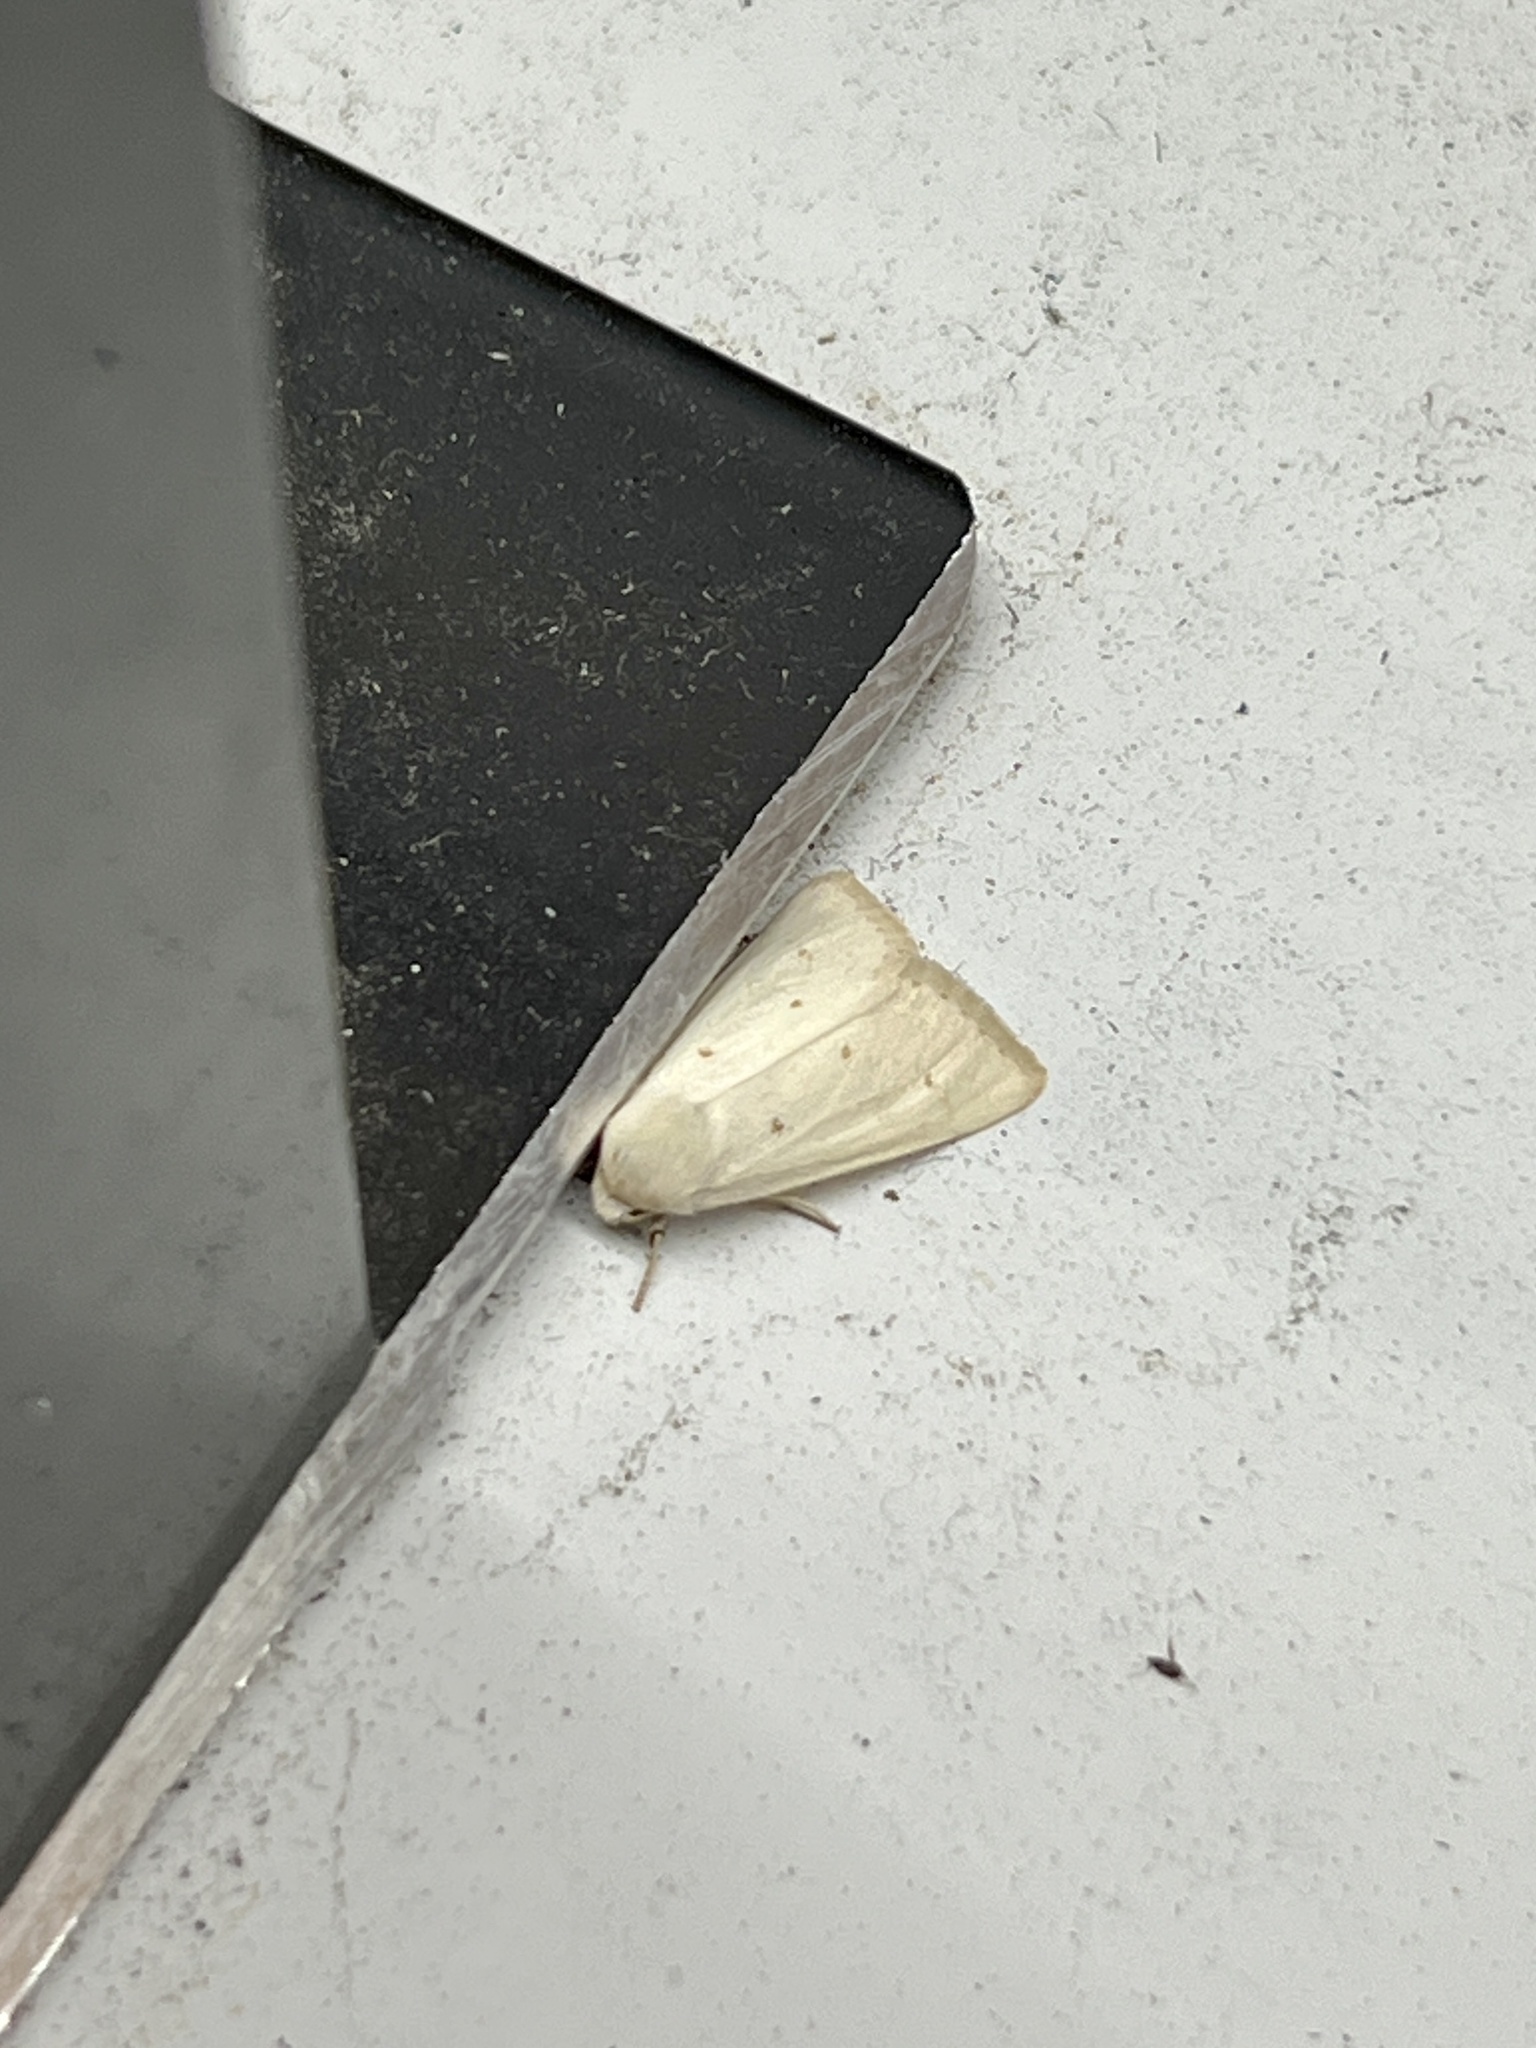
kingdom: Animalia
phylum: Arthropoda
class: Insecta
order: Lepidoptera
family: Noctuidae
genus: Schinia
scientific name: Schinia luxa
